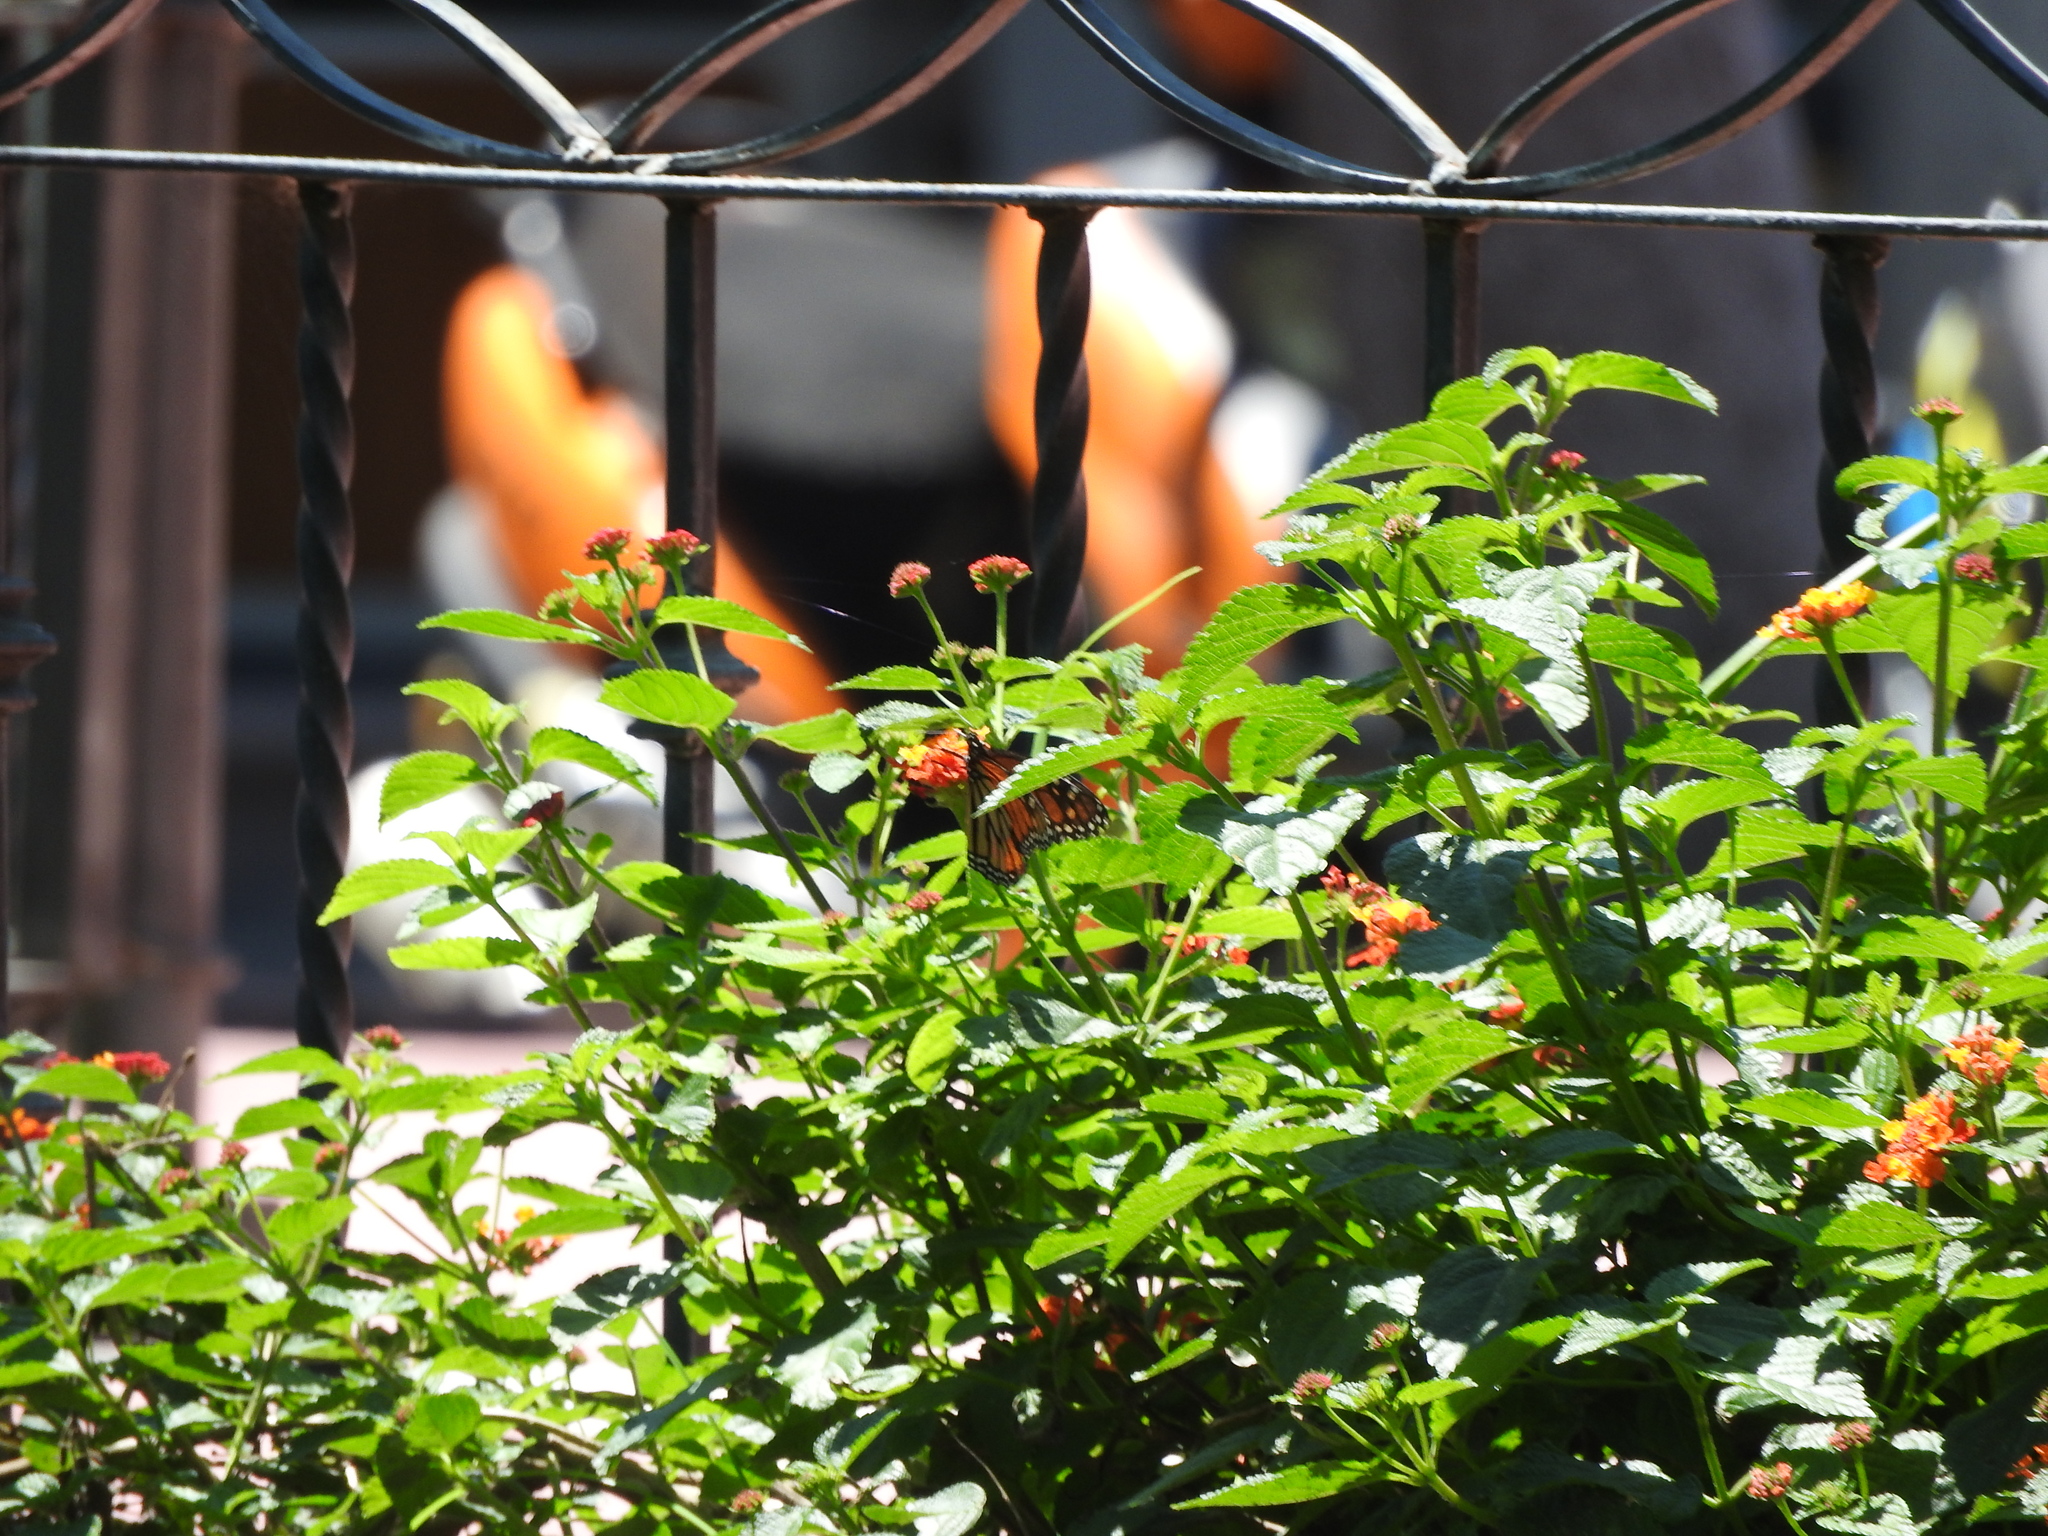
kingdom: Animalia
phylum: Arthropoda
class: Insecta
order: Lepidoptera
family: Nymphalidae
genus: Danaus
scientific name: Danaus plexippus
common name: Monarch
